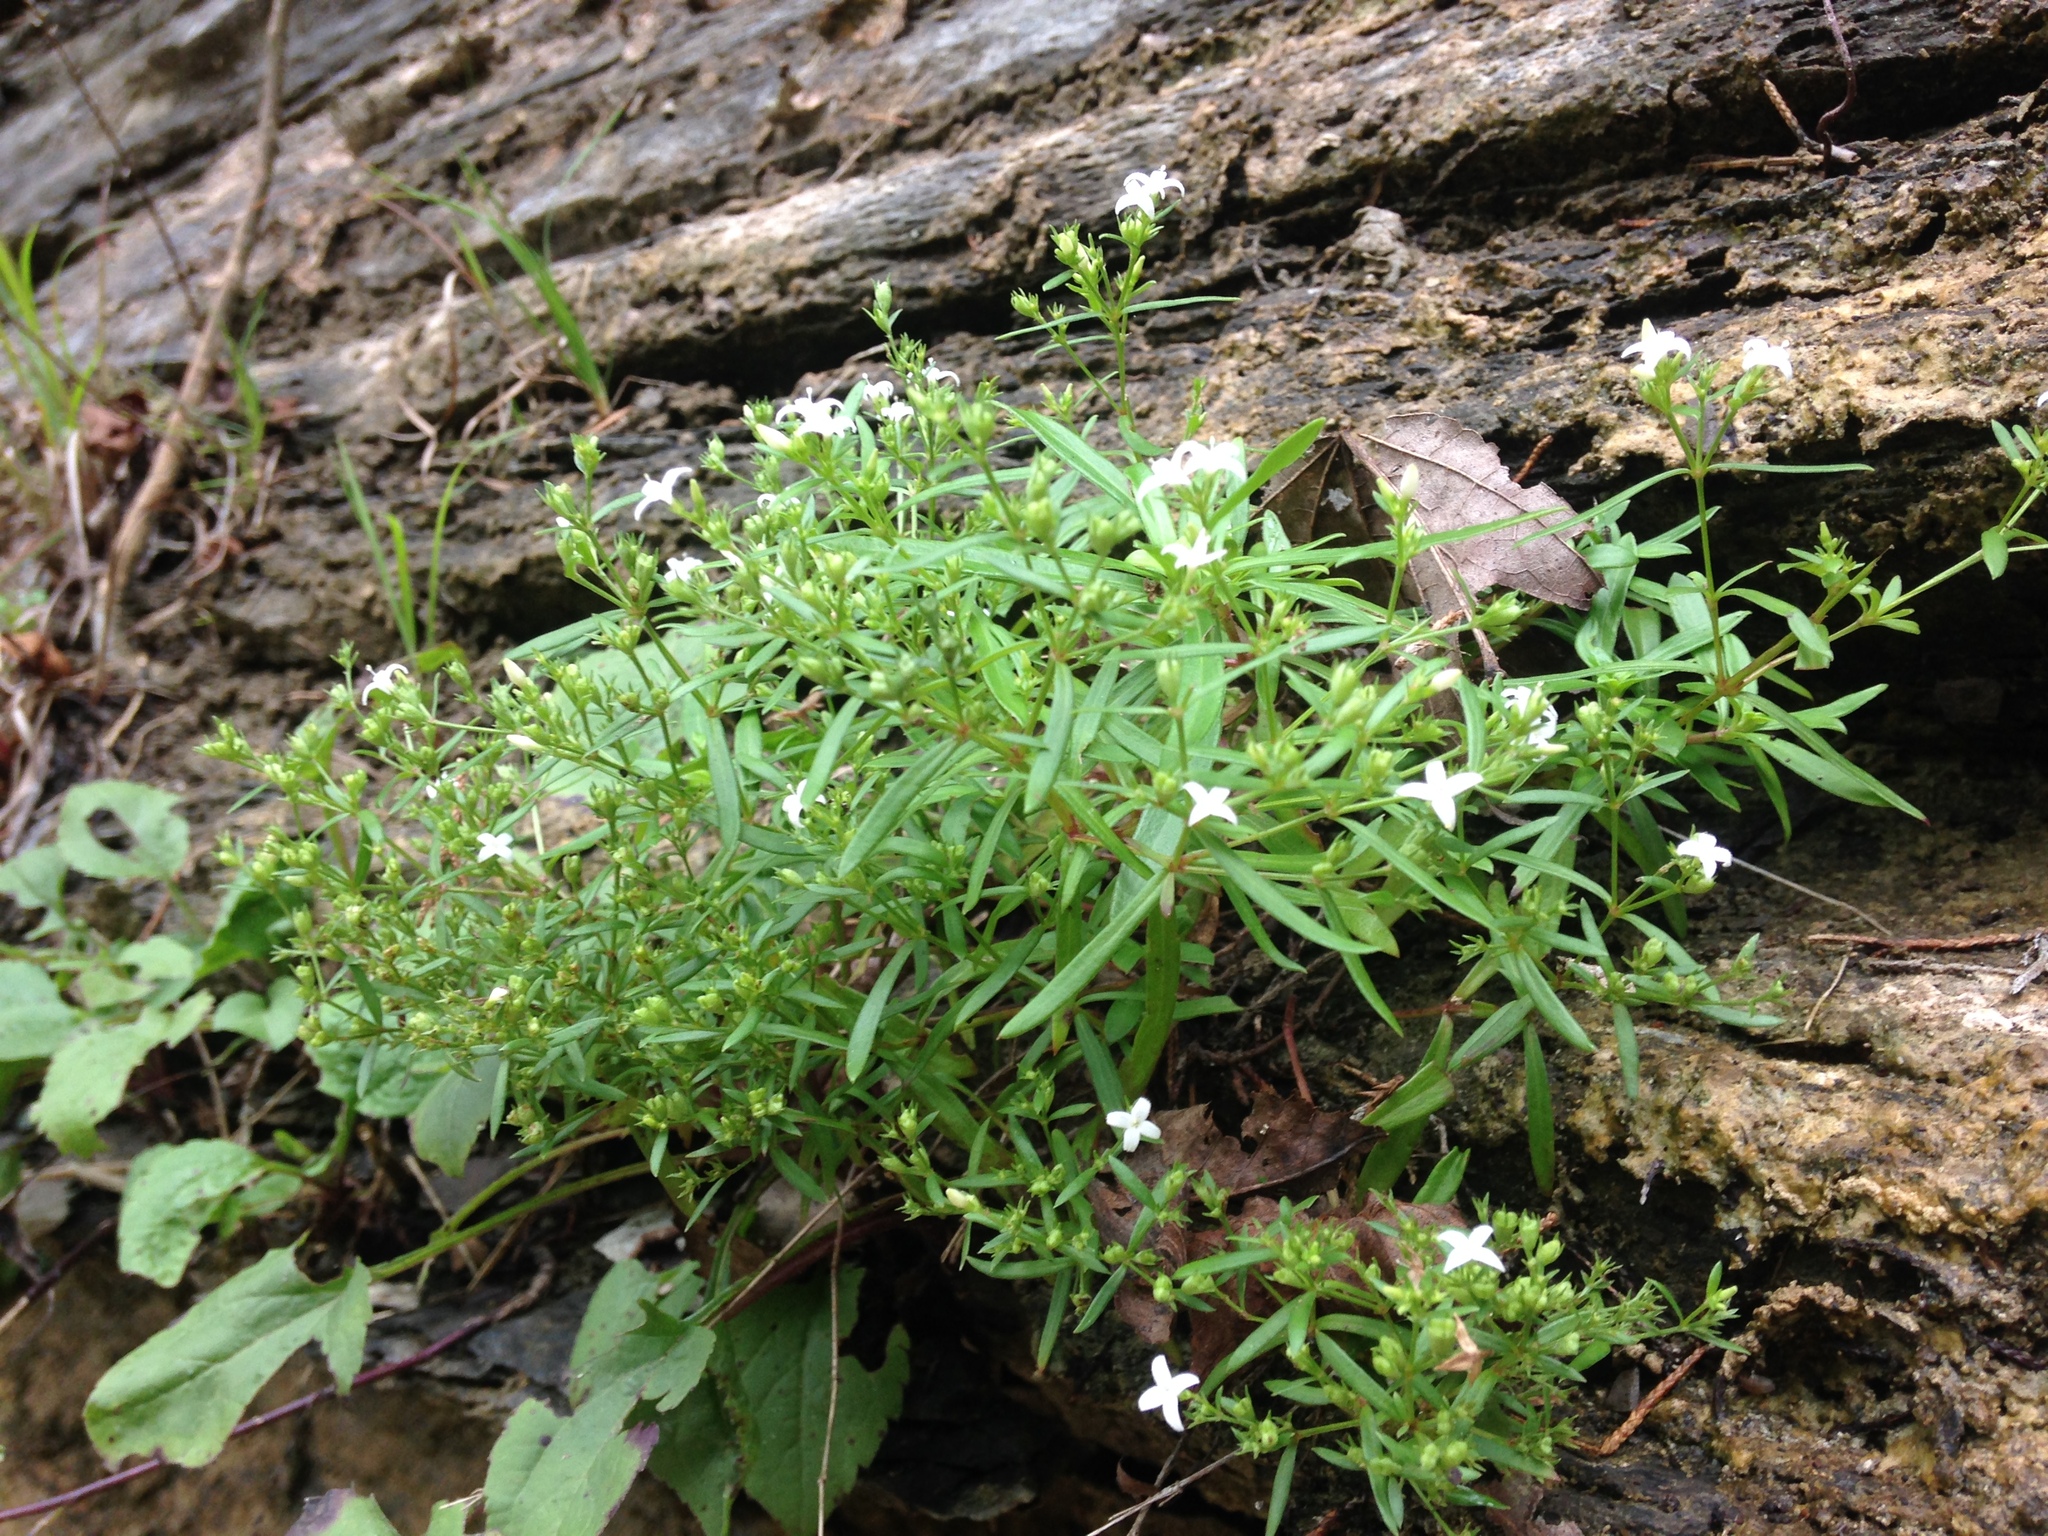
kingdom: Plantae
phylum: Tracheophyta
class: Magnoliopsida
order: Gentianales
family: Rubiaceae
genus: Houstonia
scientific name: Houstonia purpurea
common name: Summer bluet
